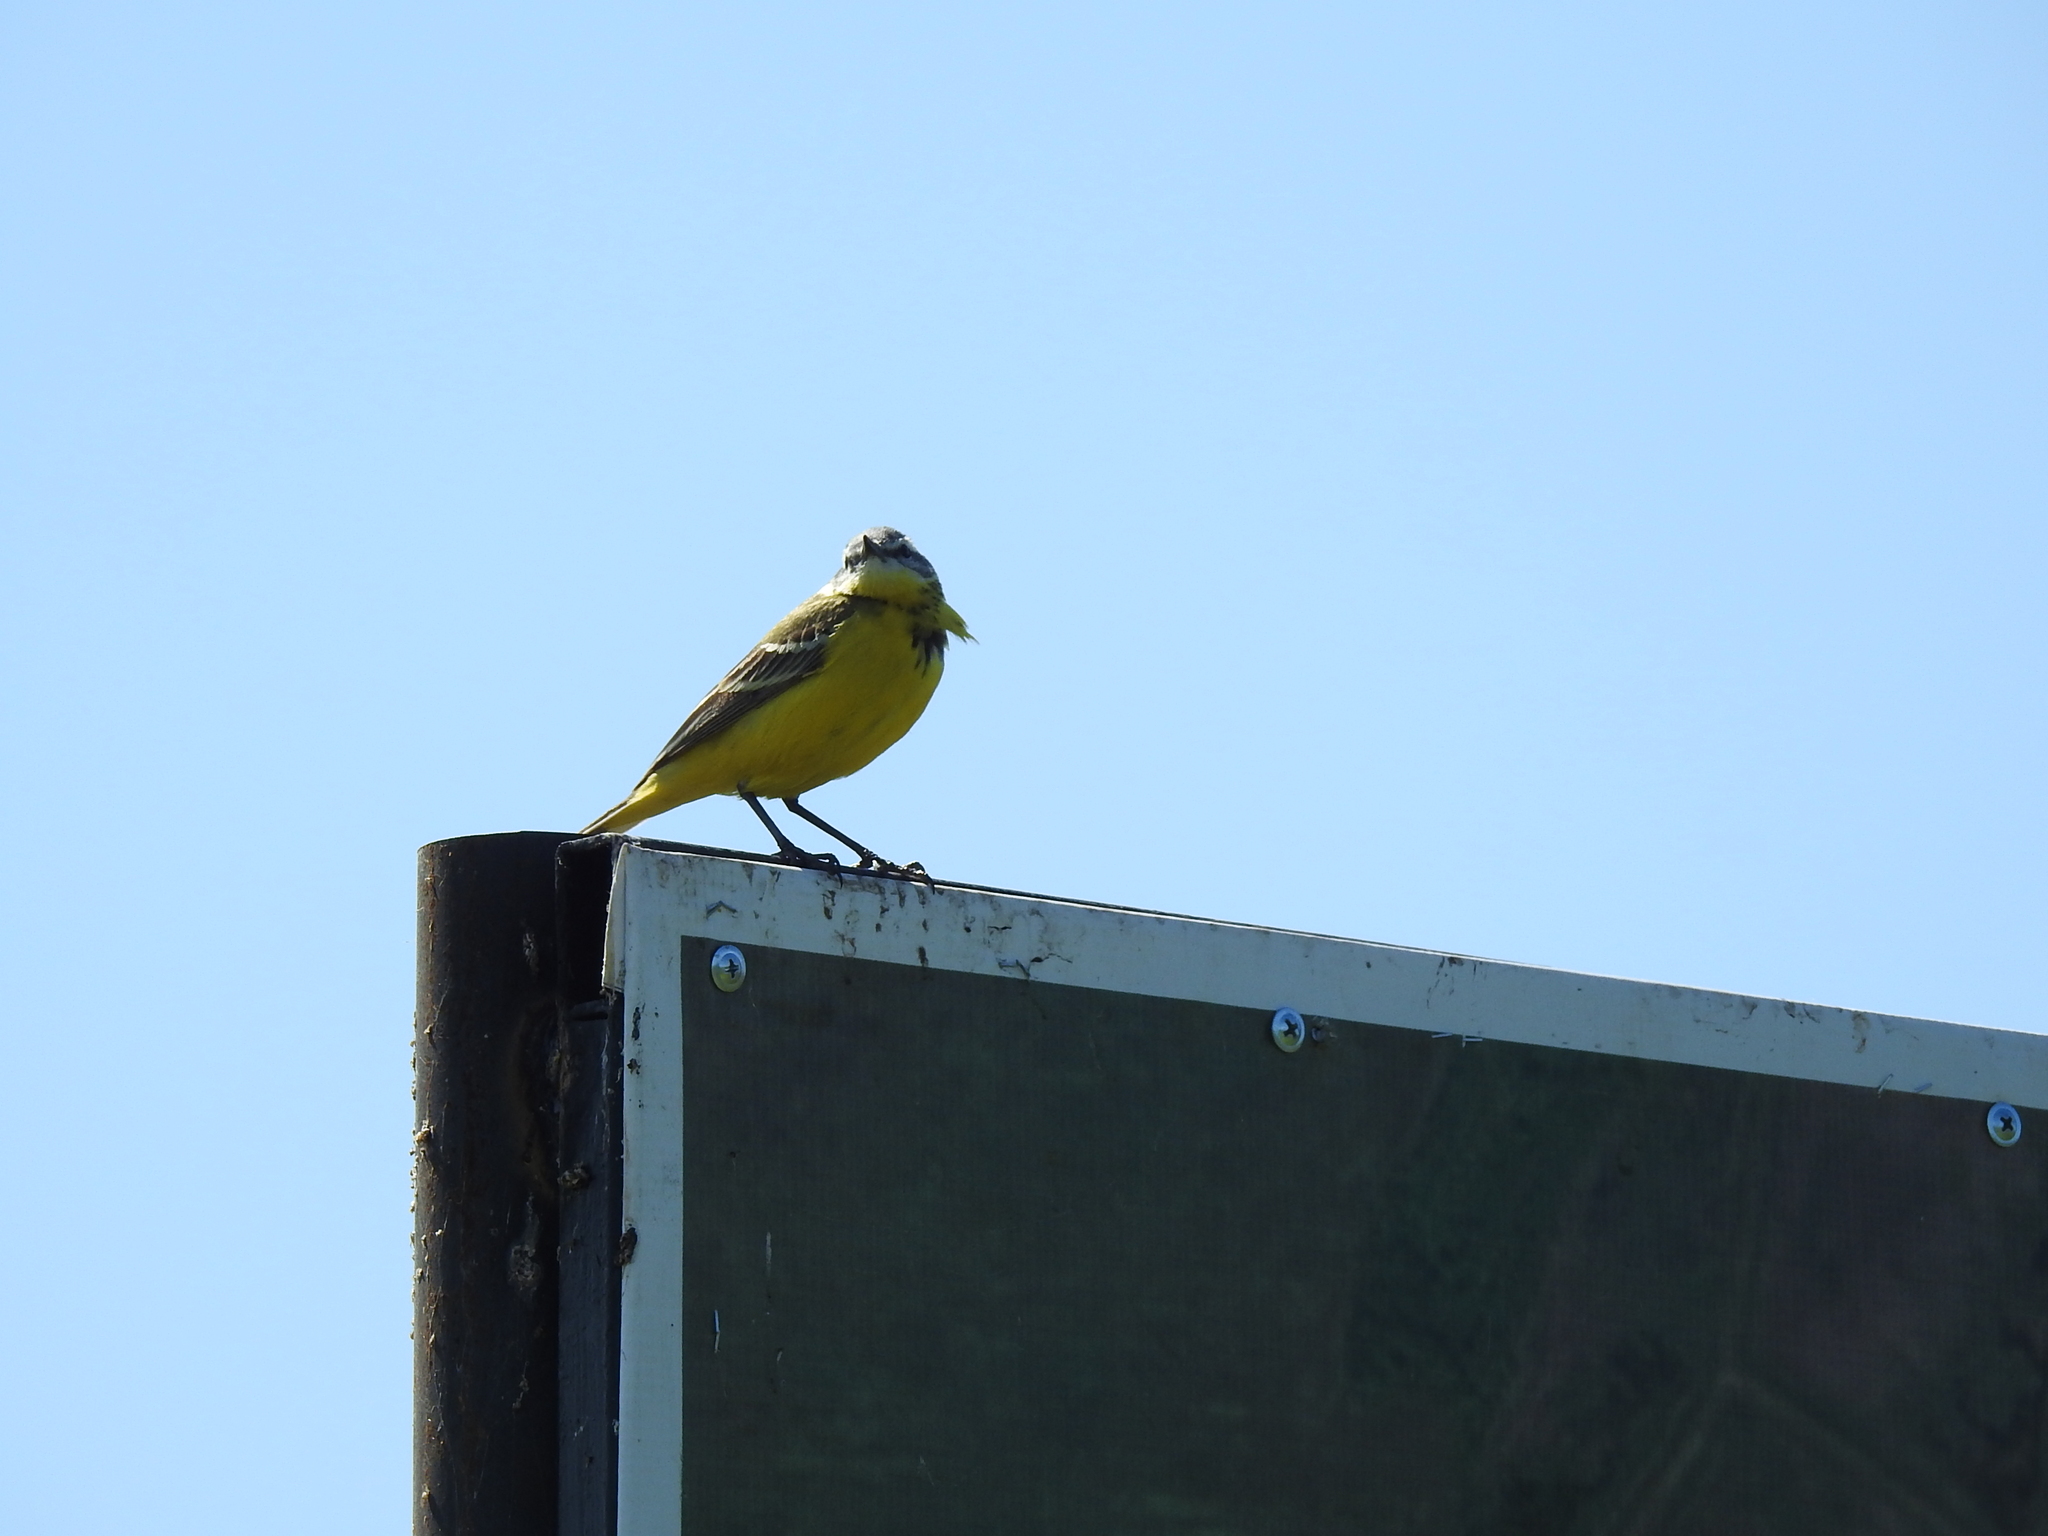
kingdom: Animalia
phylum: Chordata
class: Aves
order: Passeriformes
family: Motacillidae
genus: Motacilla
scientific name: Motacilla flava
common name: Western yellow wagtail
